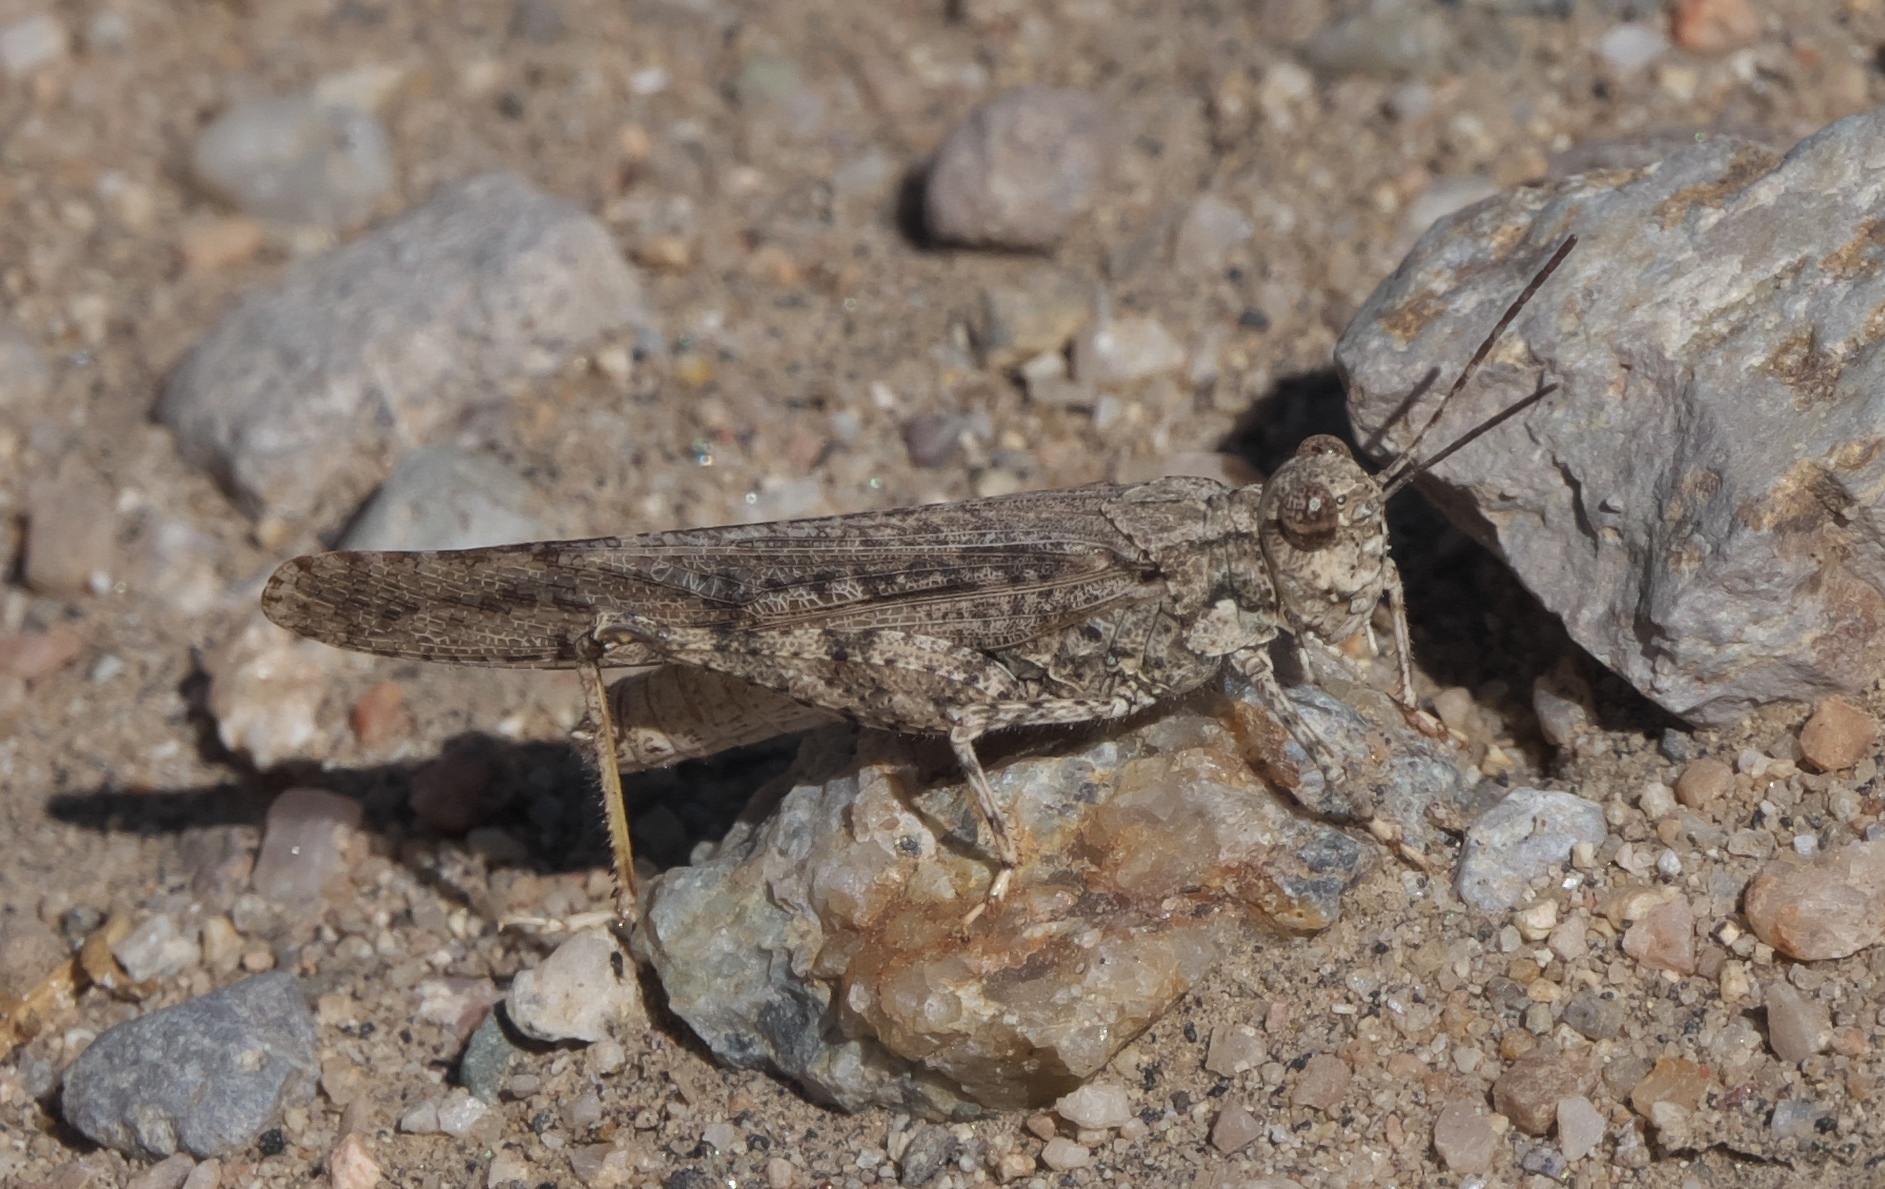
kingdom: Animalia
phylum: Arthropoda
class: Insecta
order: Orthoptera
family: Acrididae
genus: Trimerotropis
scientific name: Trimerotropis gracilis
